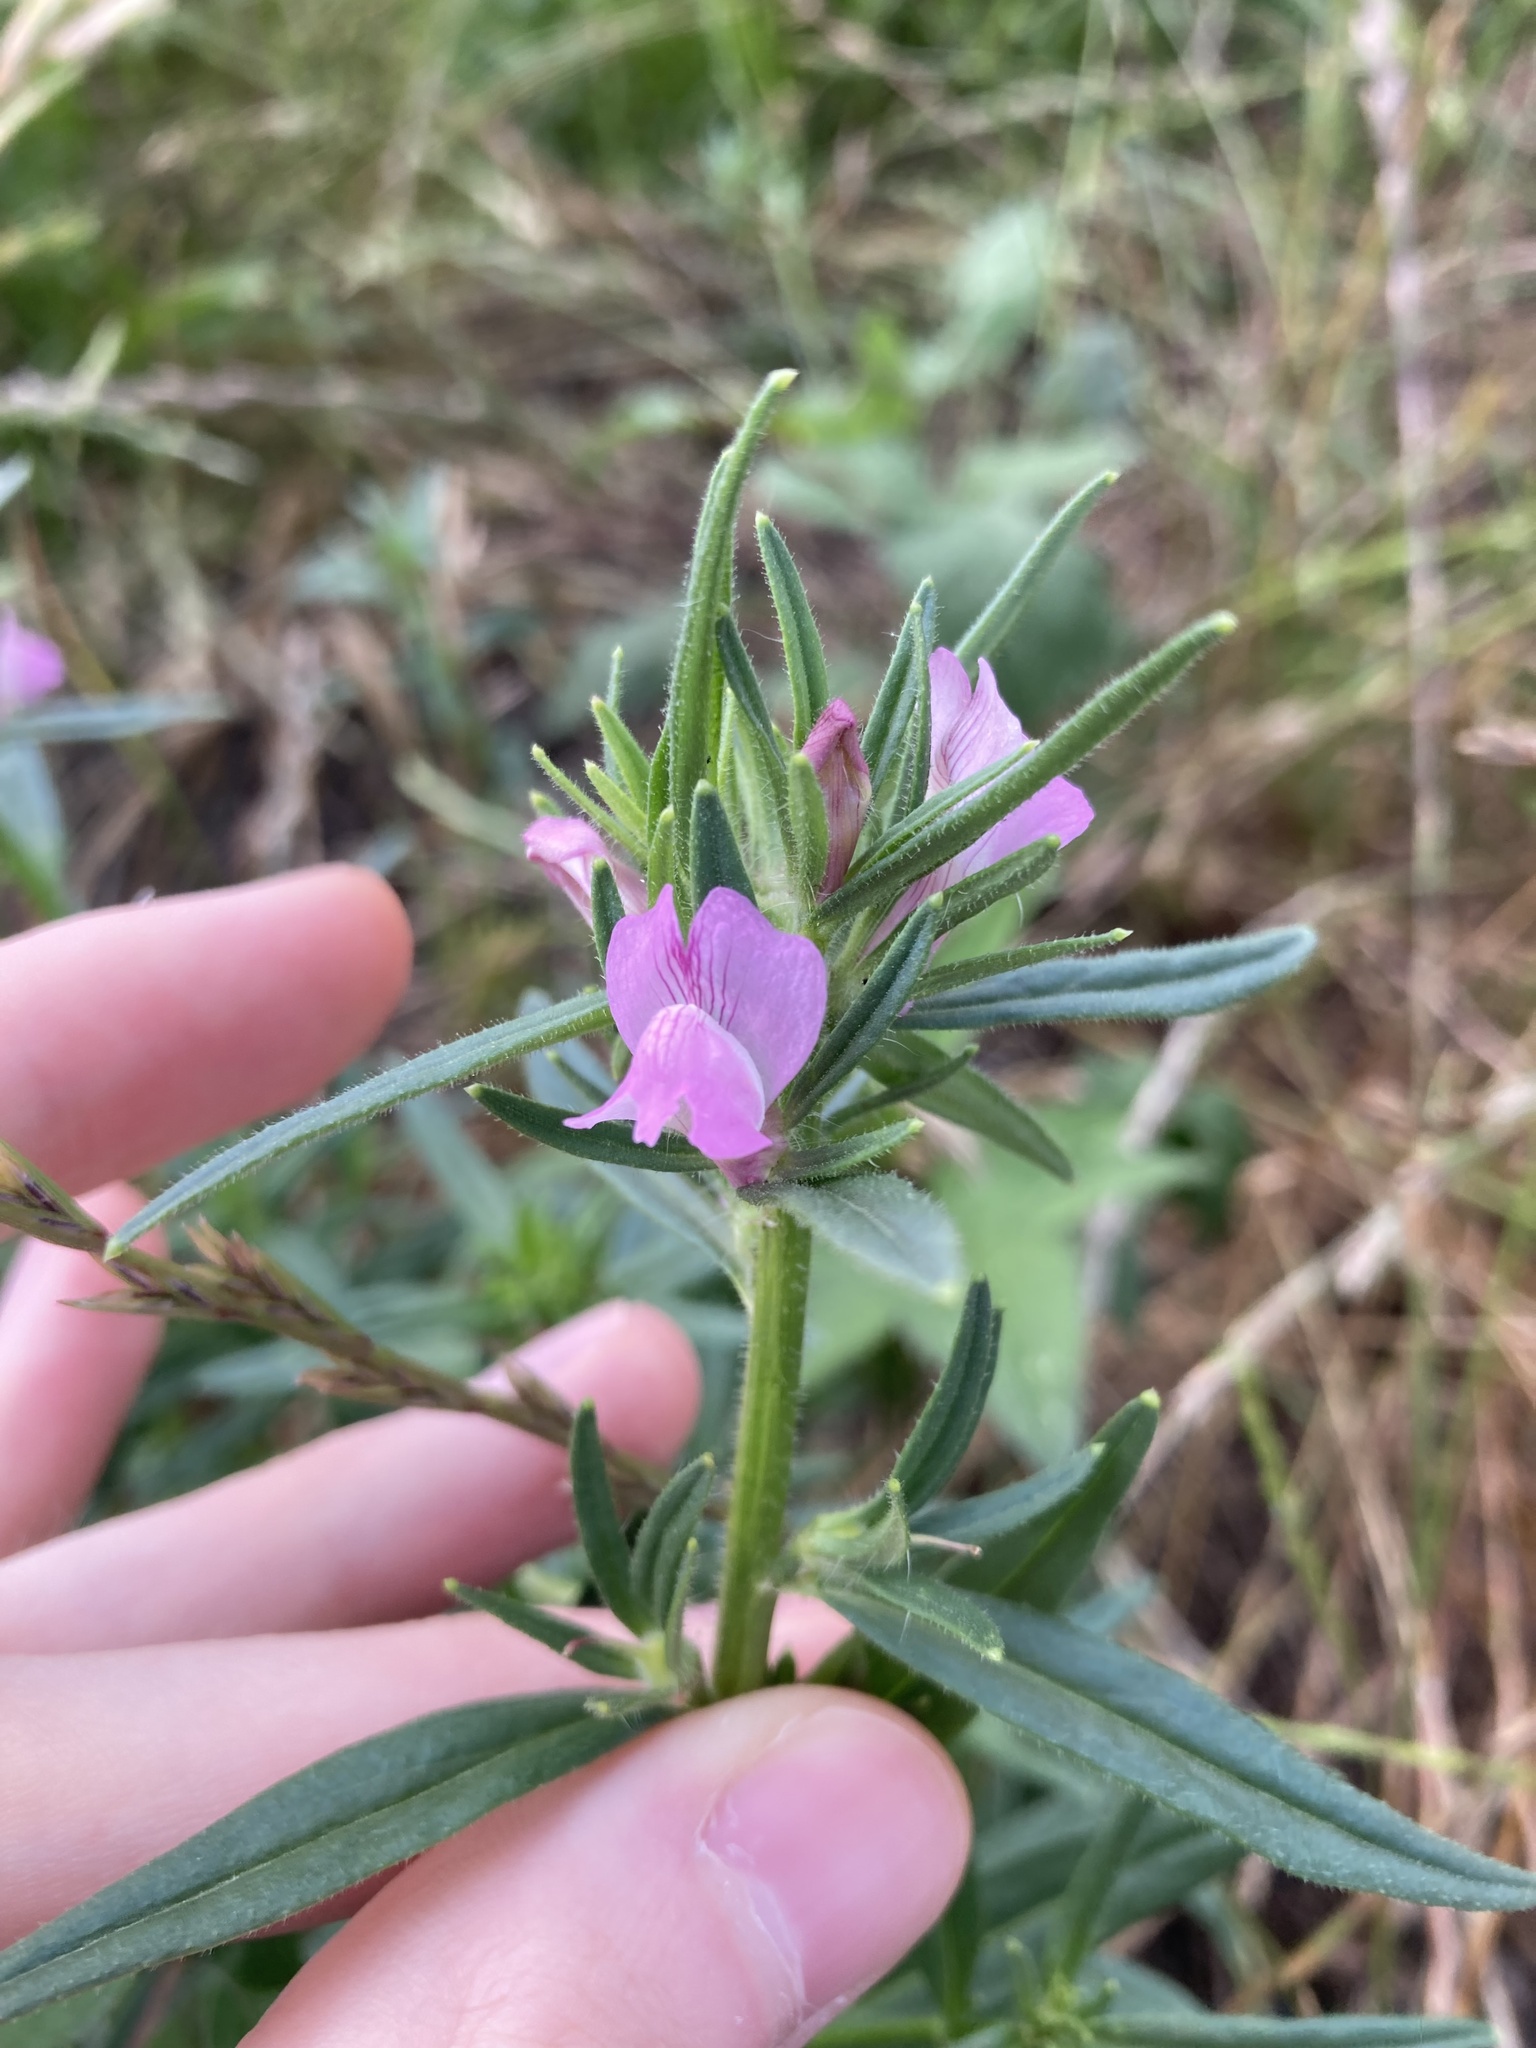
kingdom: Plantae
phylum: Tracheophyta
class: Magnoliopsida
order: Lamiales
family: Plantaginaceae
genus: Misopates
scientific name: Misopates orontium
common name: Weasel's-snout
